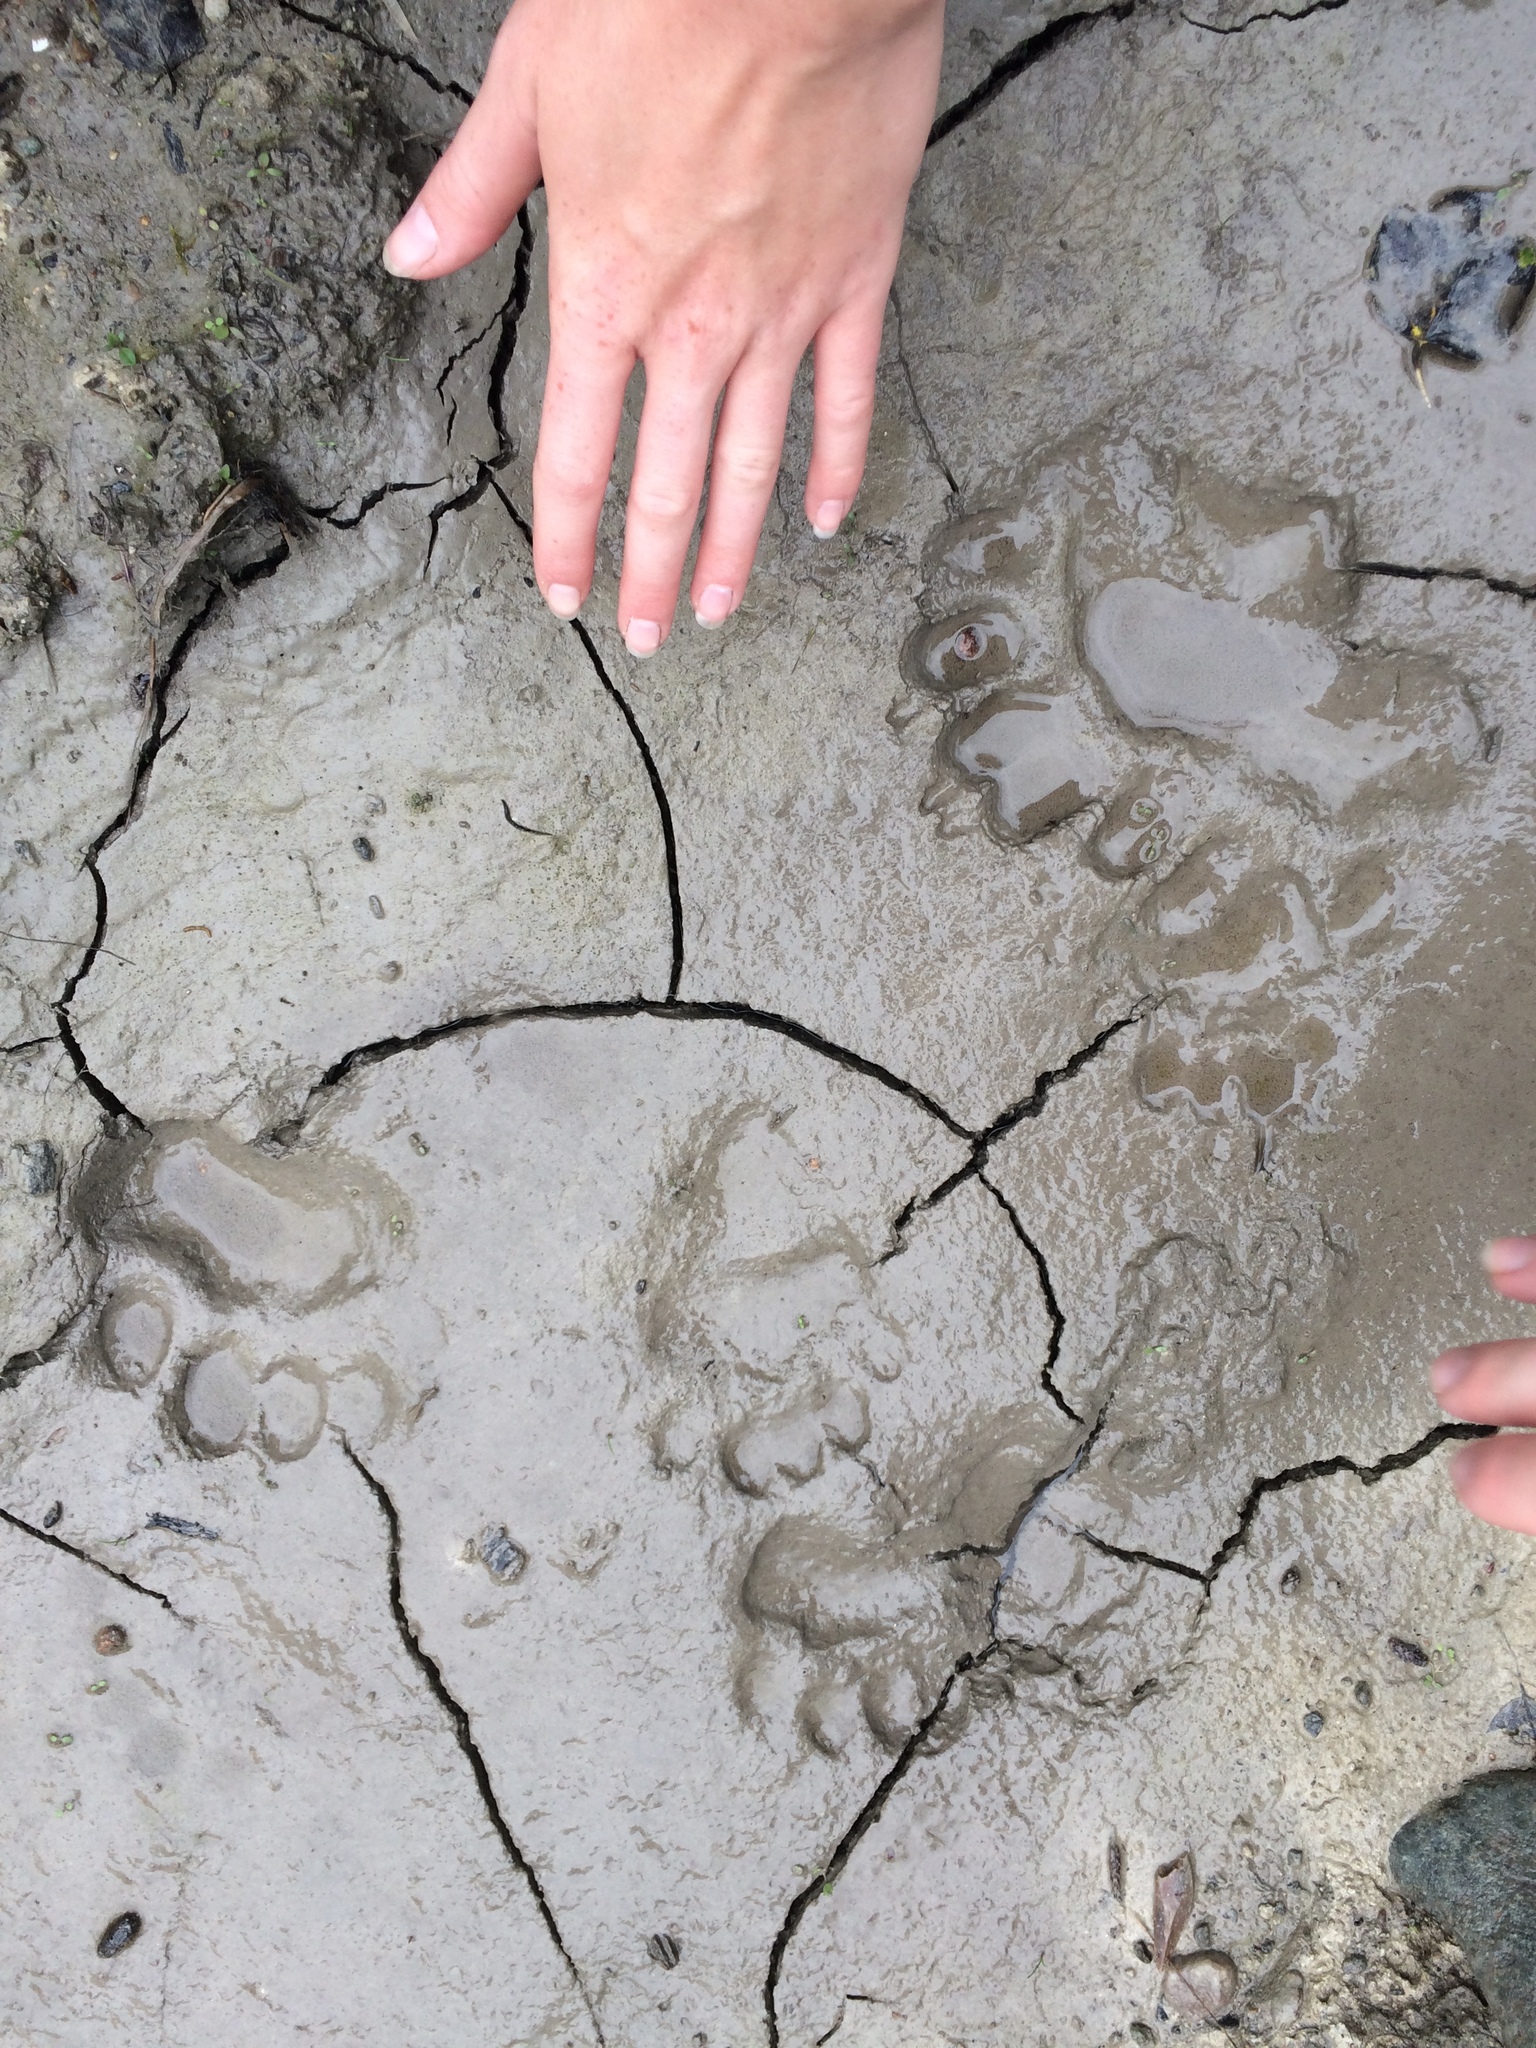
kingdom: Animalia
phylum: Chordata
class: Mammalia
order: Carnivora
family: Ursidae
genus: Ursus
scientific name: Ursus americanus
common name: American black bear
